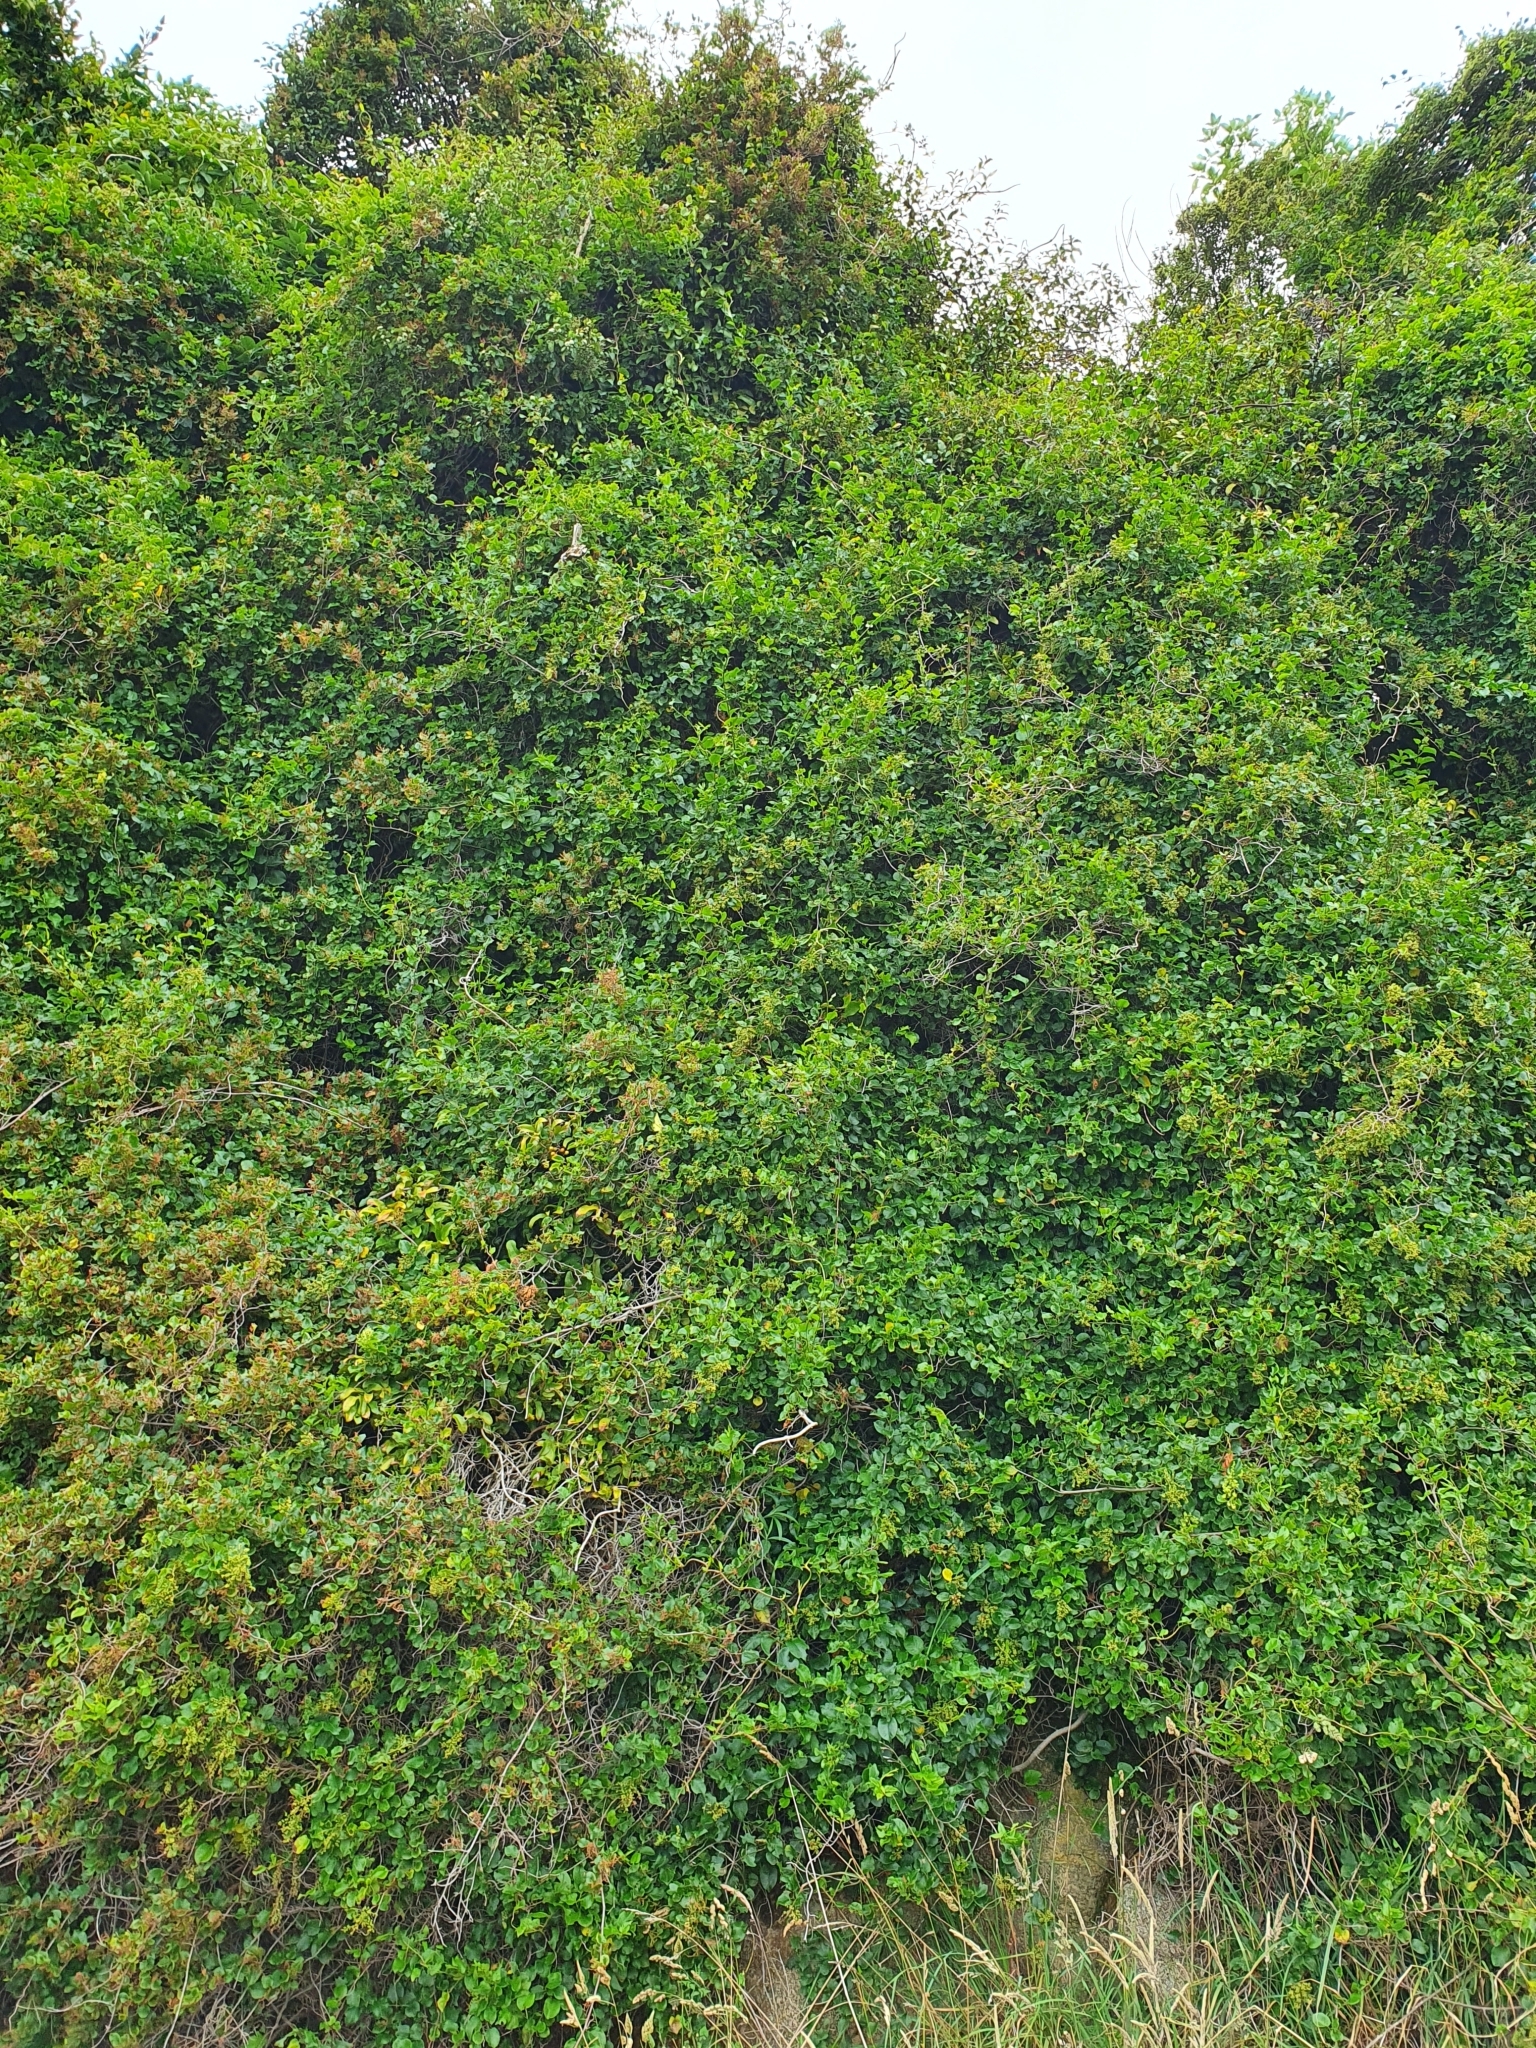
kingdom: Plantae
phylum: Tracheophyta
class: Magnoliopsida
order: Caryophyllales
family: Polygonaceae
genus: Muehlenbeckia
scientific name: Muehlenbeckia australis
